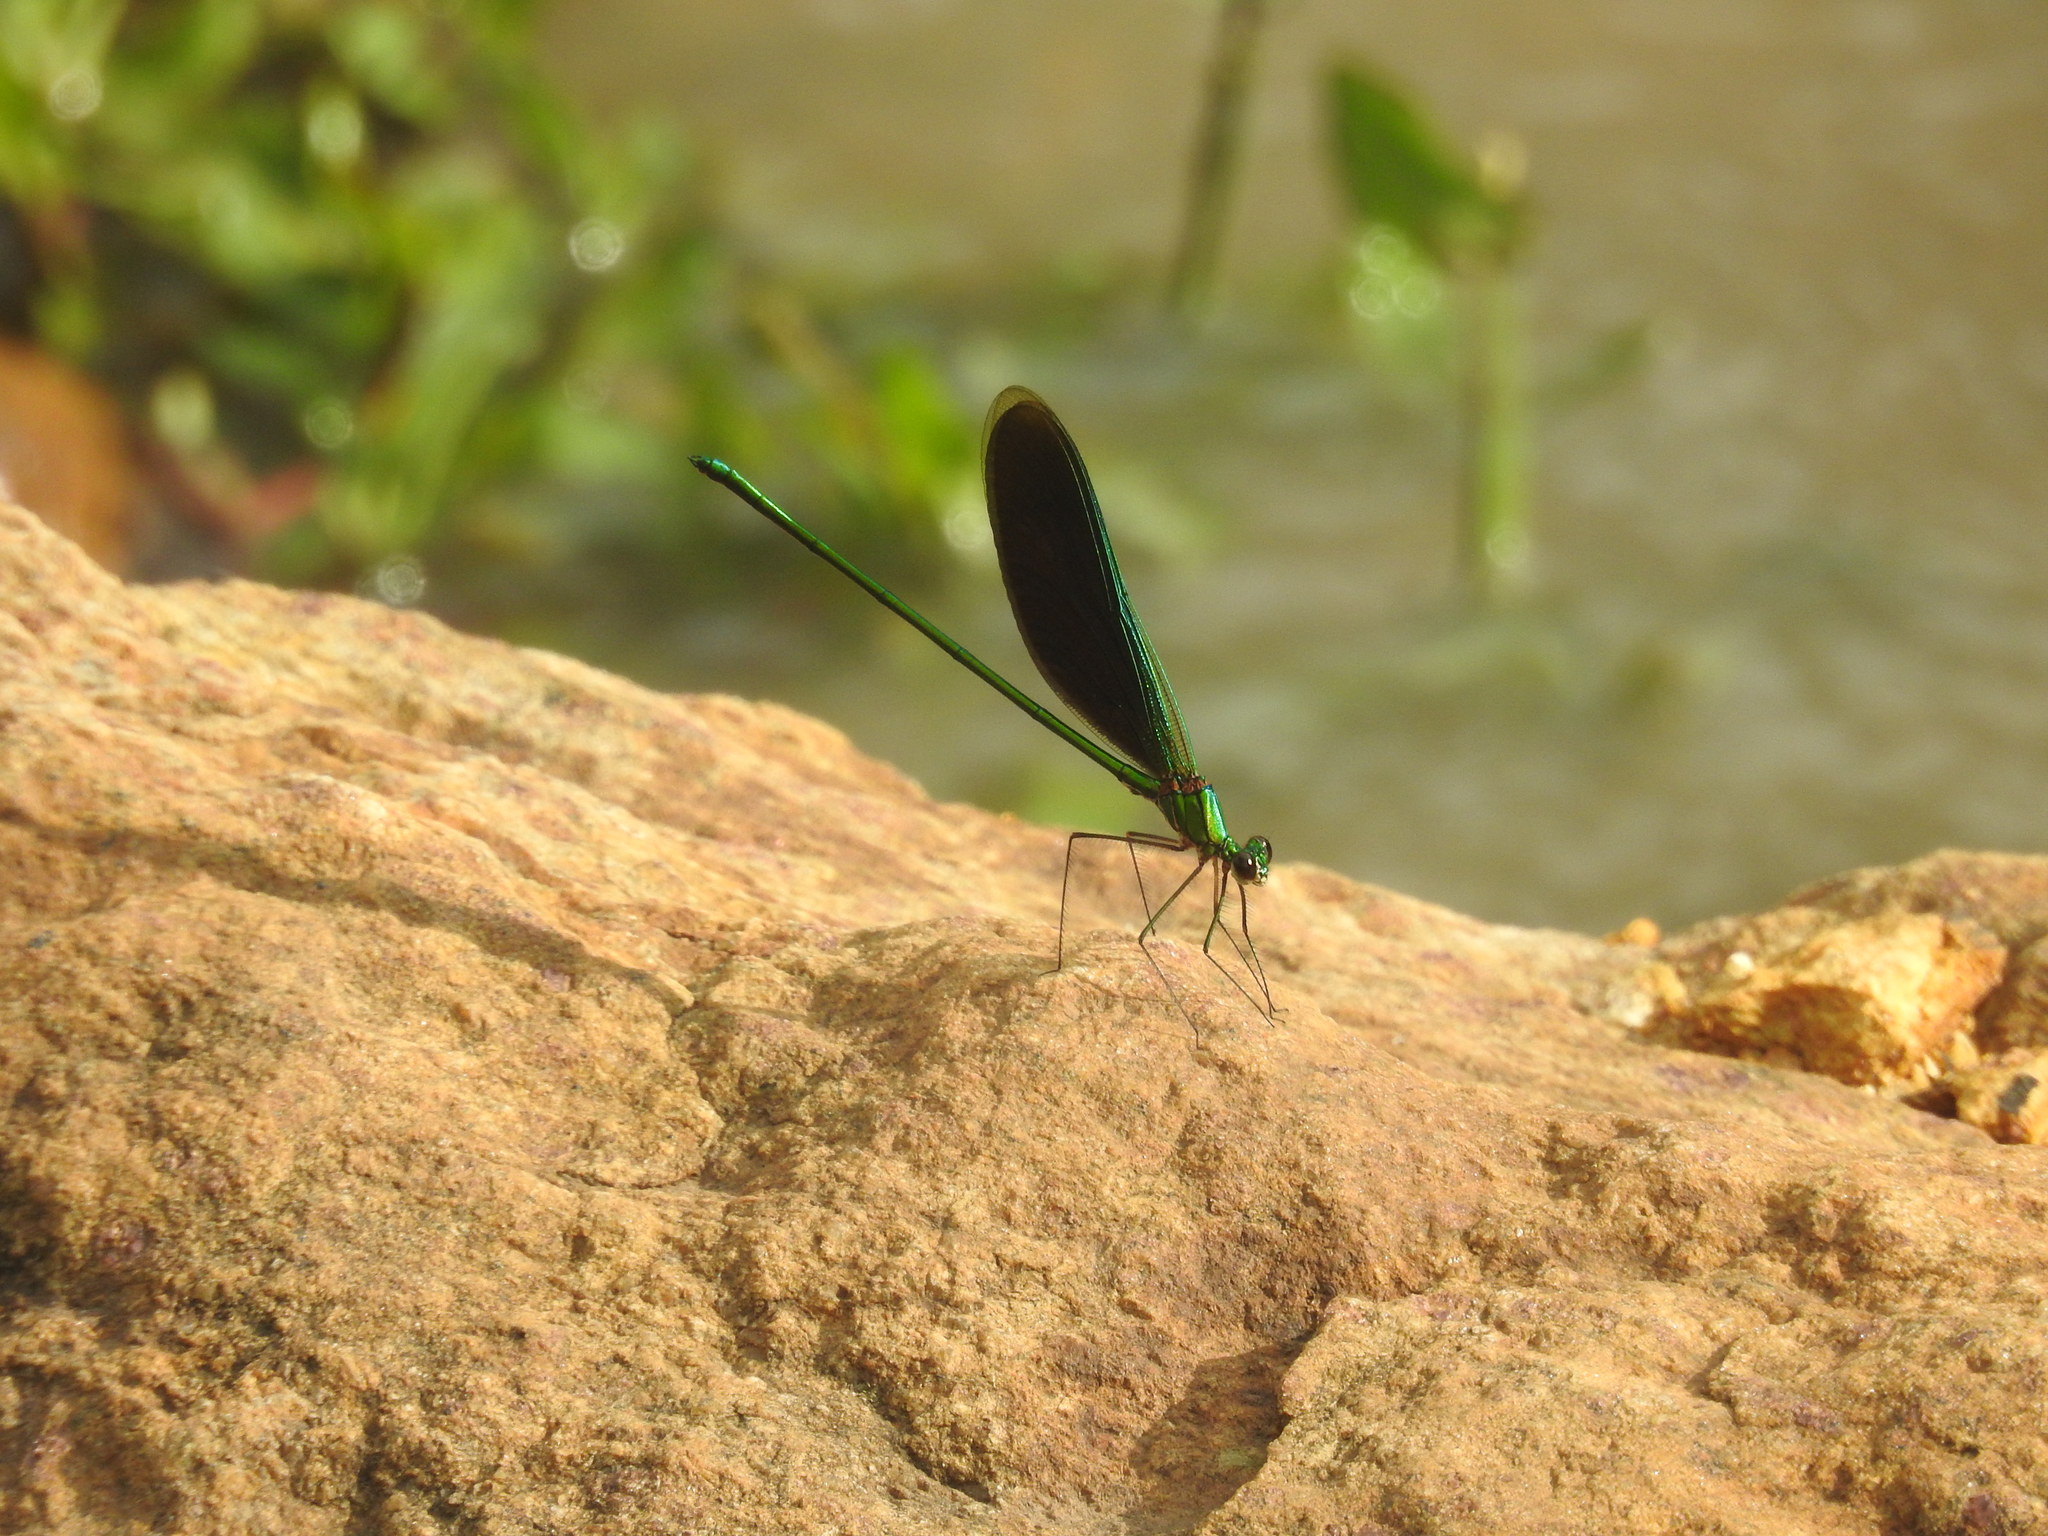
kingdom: Animalia
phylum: Arthropoda
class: Insecta
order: Odonata
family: Calopterygidae
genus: Neurobasis
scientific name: Neurobasis chinensis
